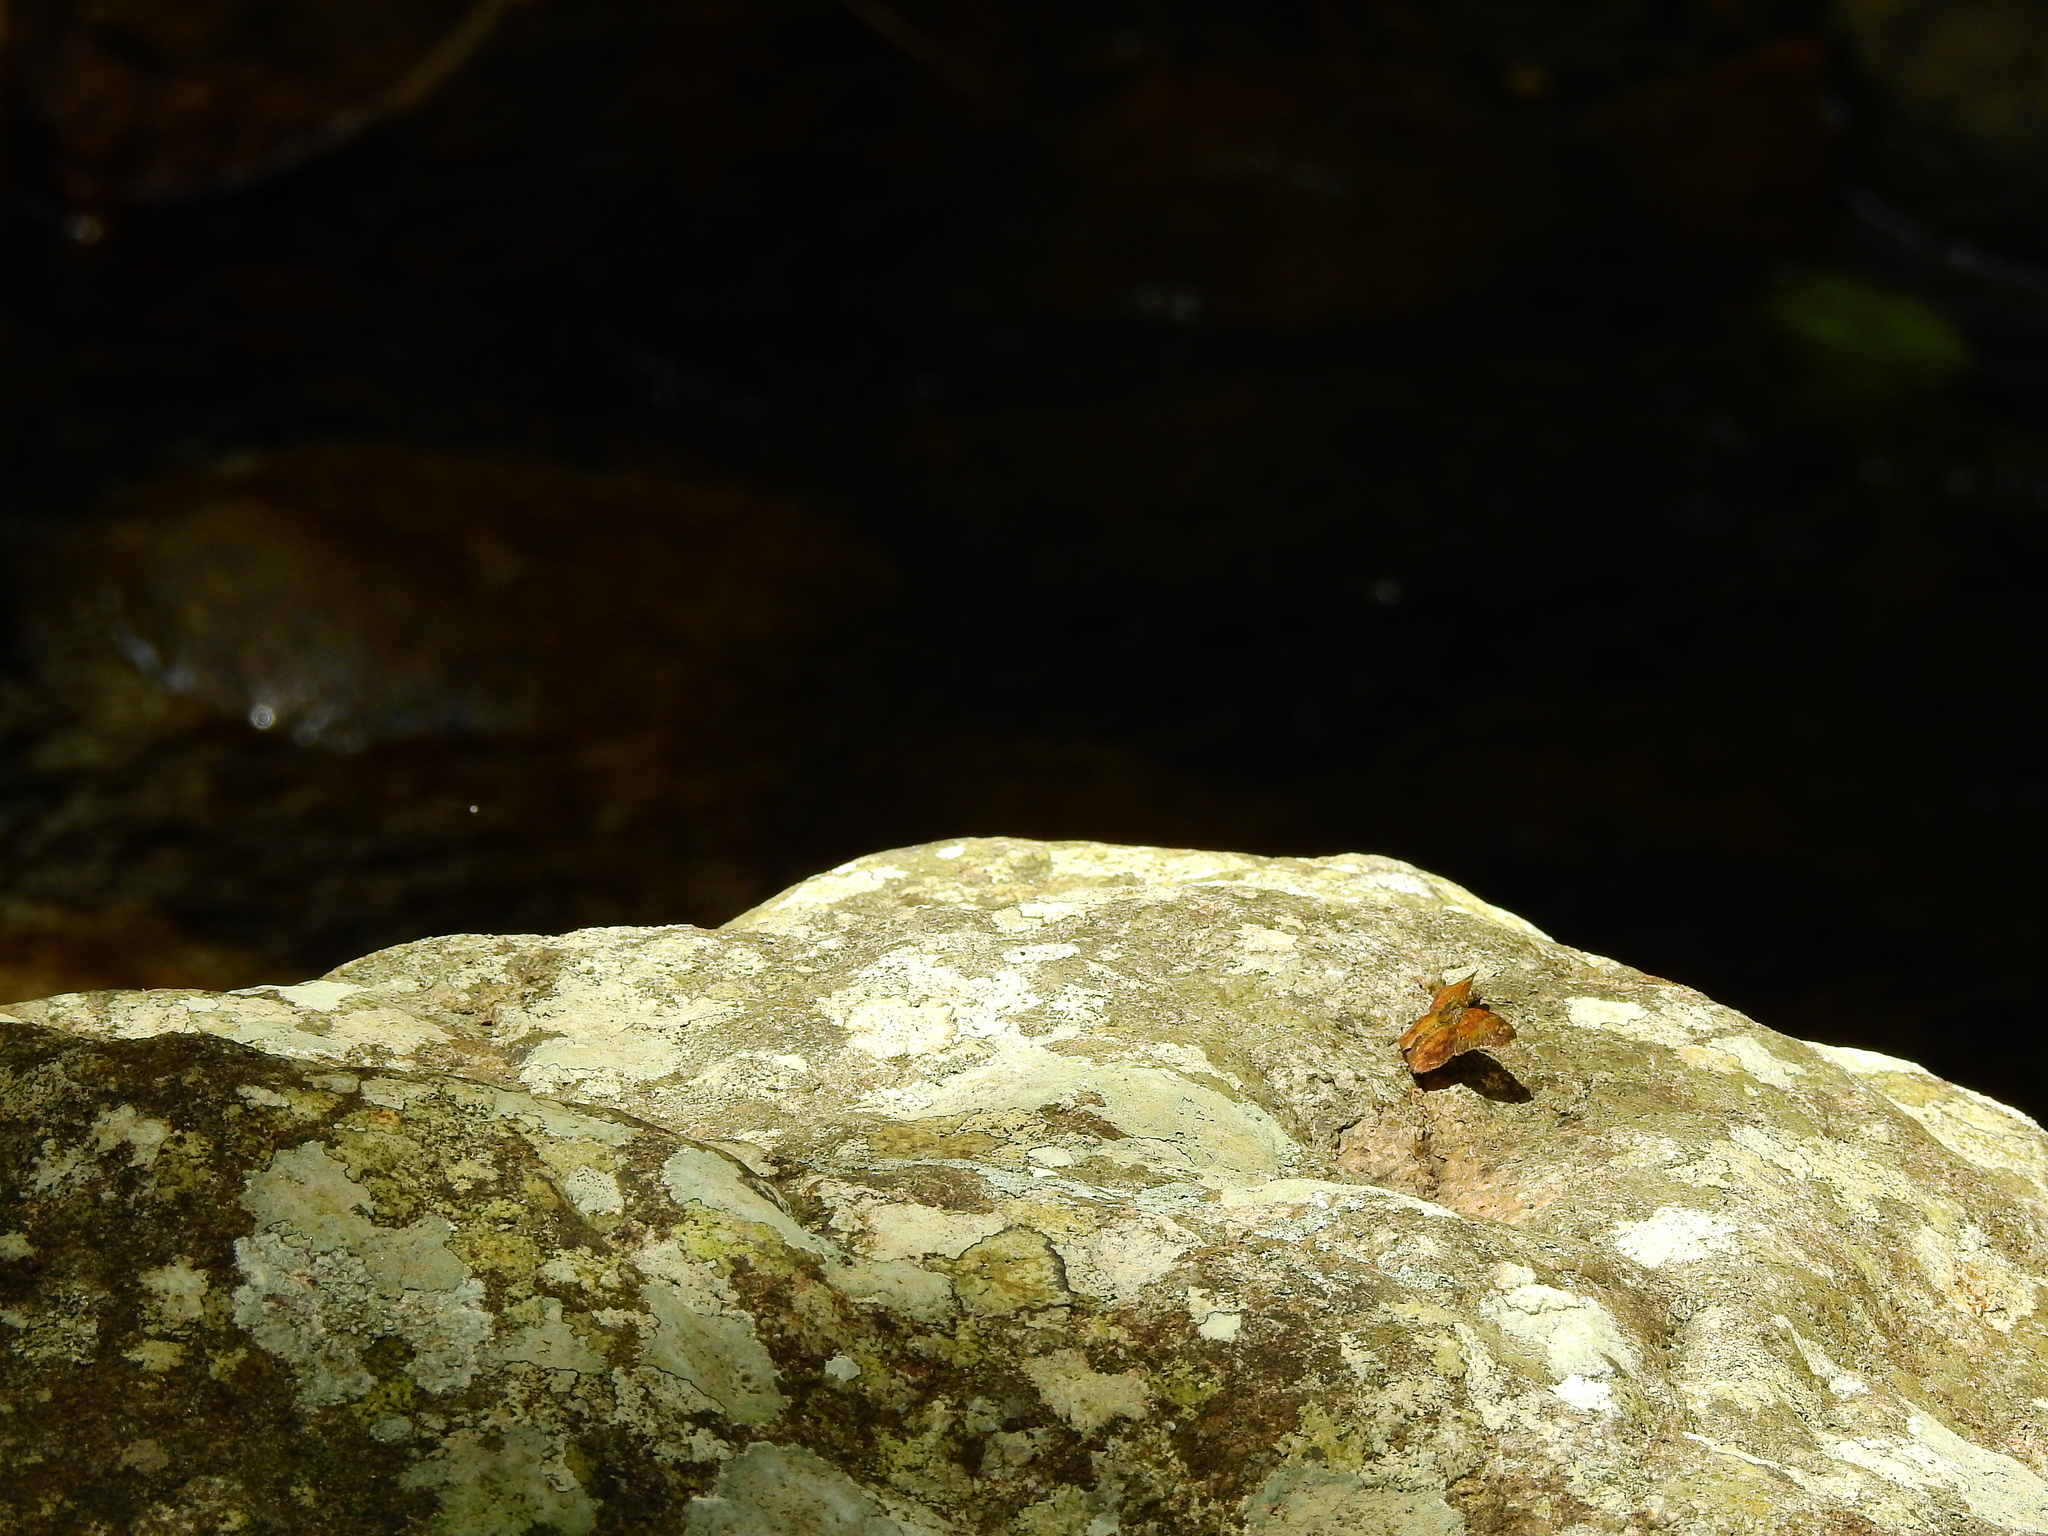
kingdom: Animalia
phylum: Arthropoda
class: Insecta
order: Lepidoptera
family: Hesperiidae
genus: Pseudocoladenia
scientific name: Pseudocoladenia dan
